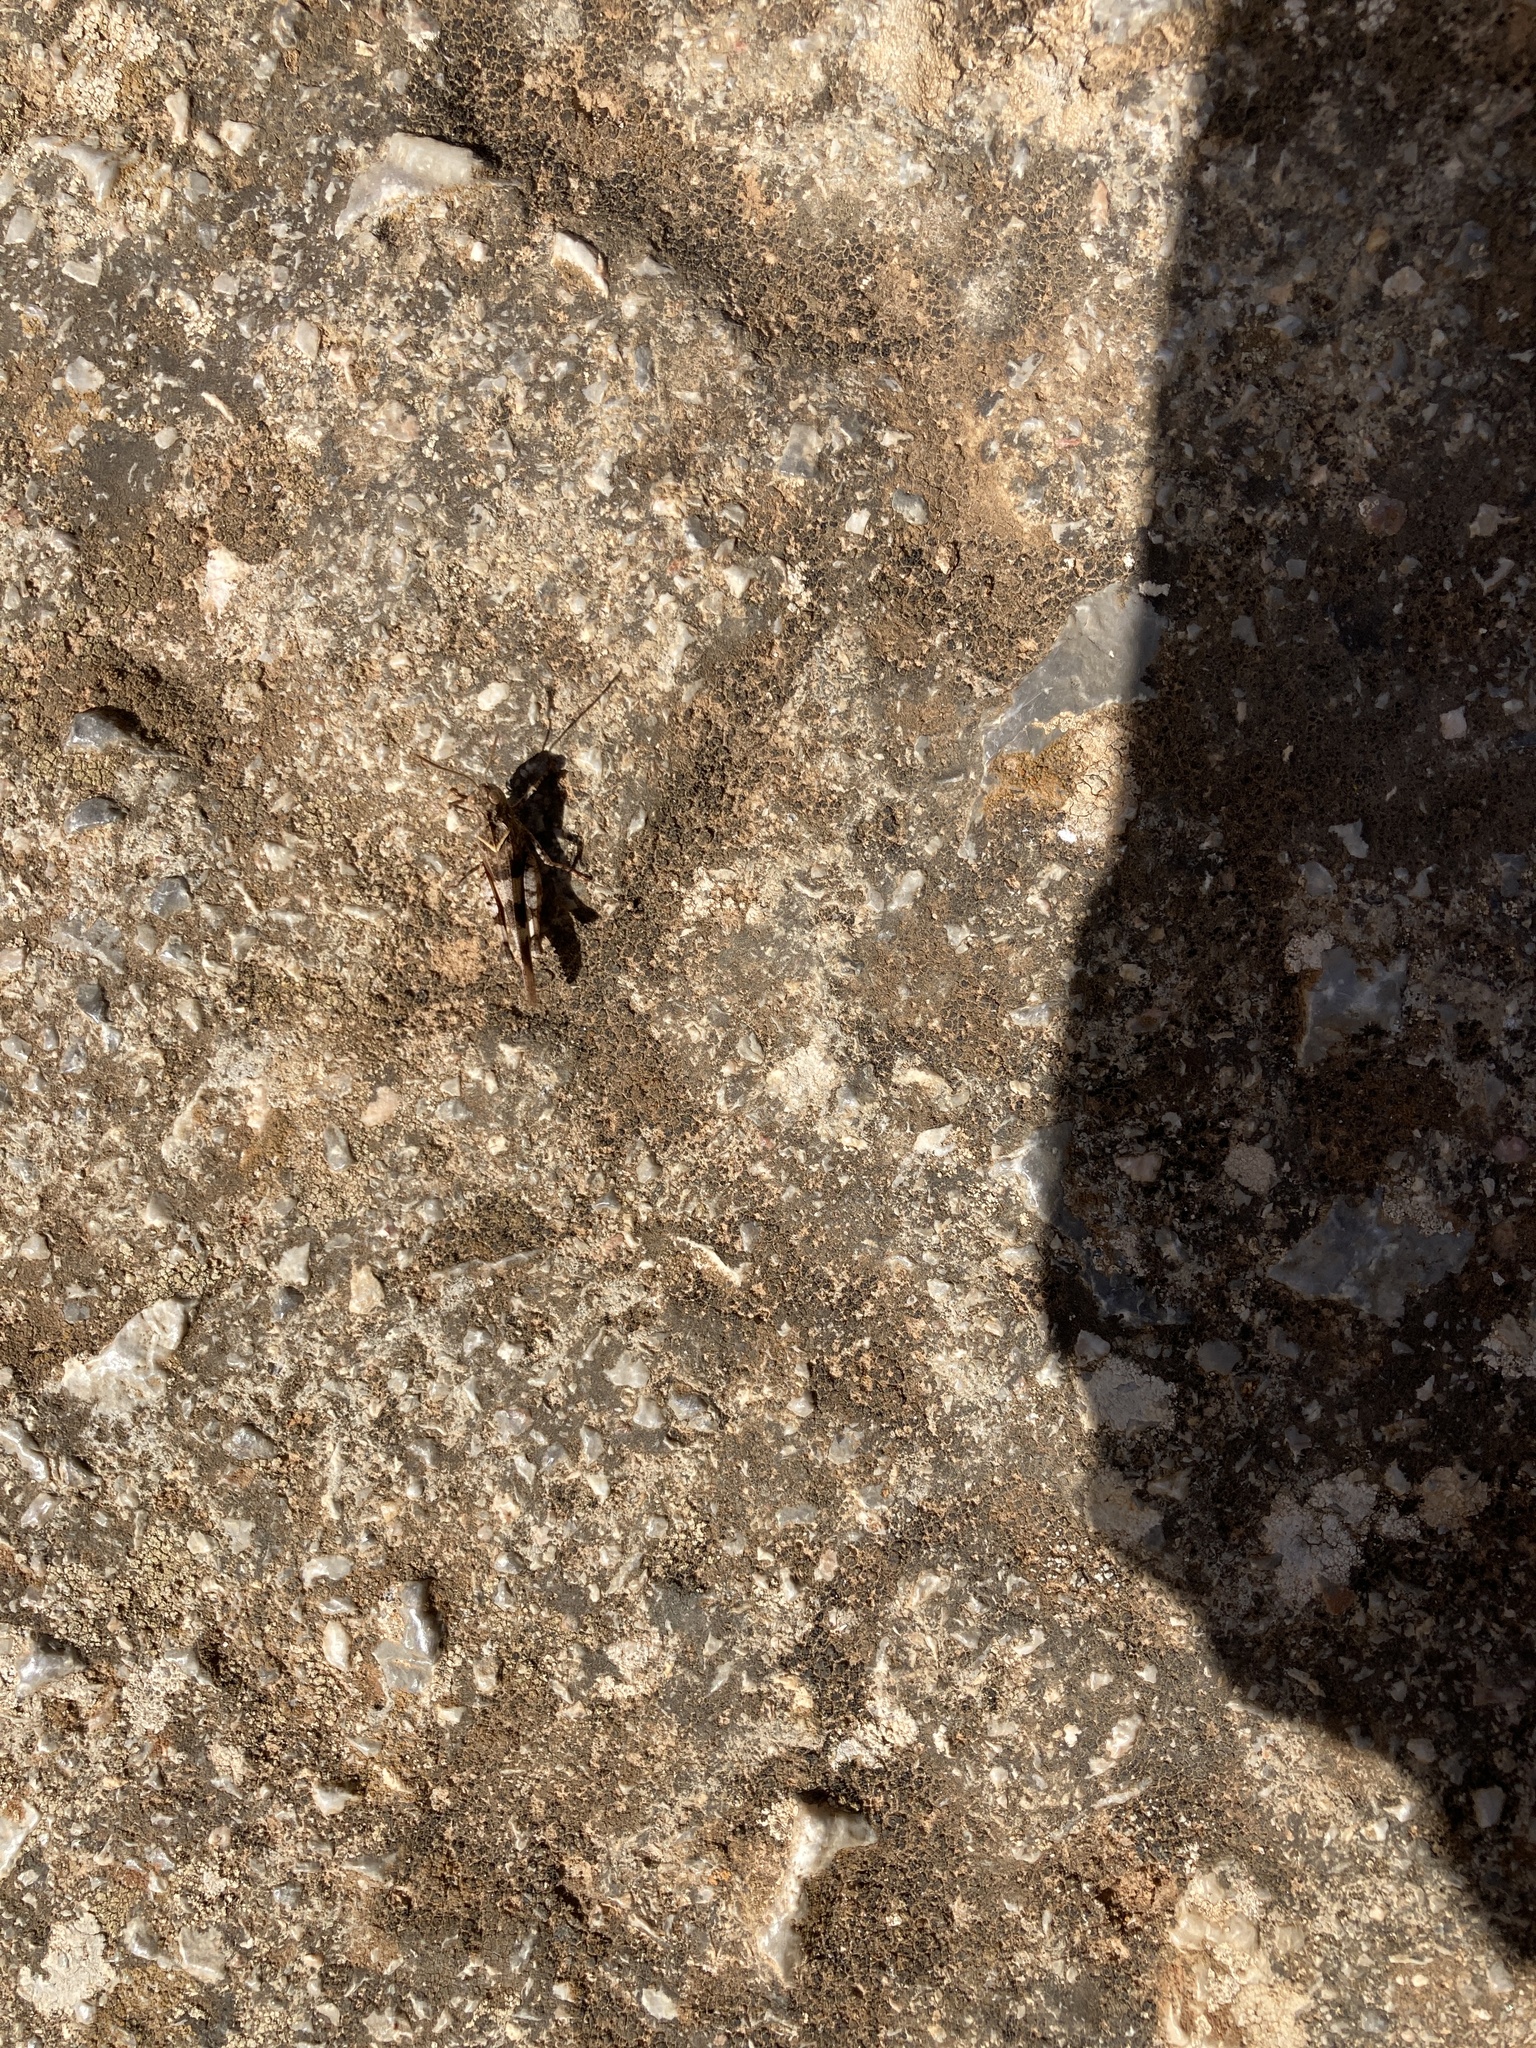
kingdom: Animalia
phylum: Arthropoda
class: Insecta
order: Orthoptera
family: Acrididae
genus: Oedipoda
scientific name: Oedipoda
